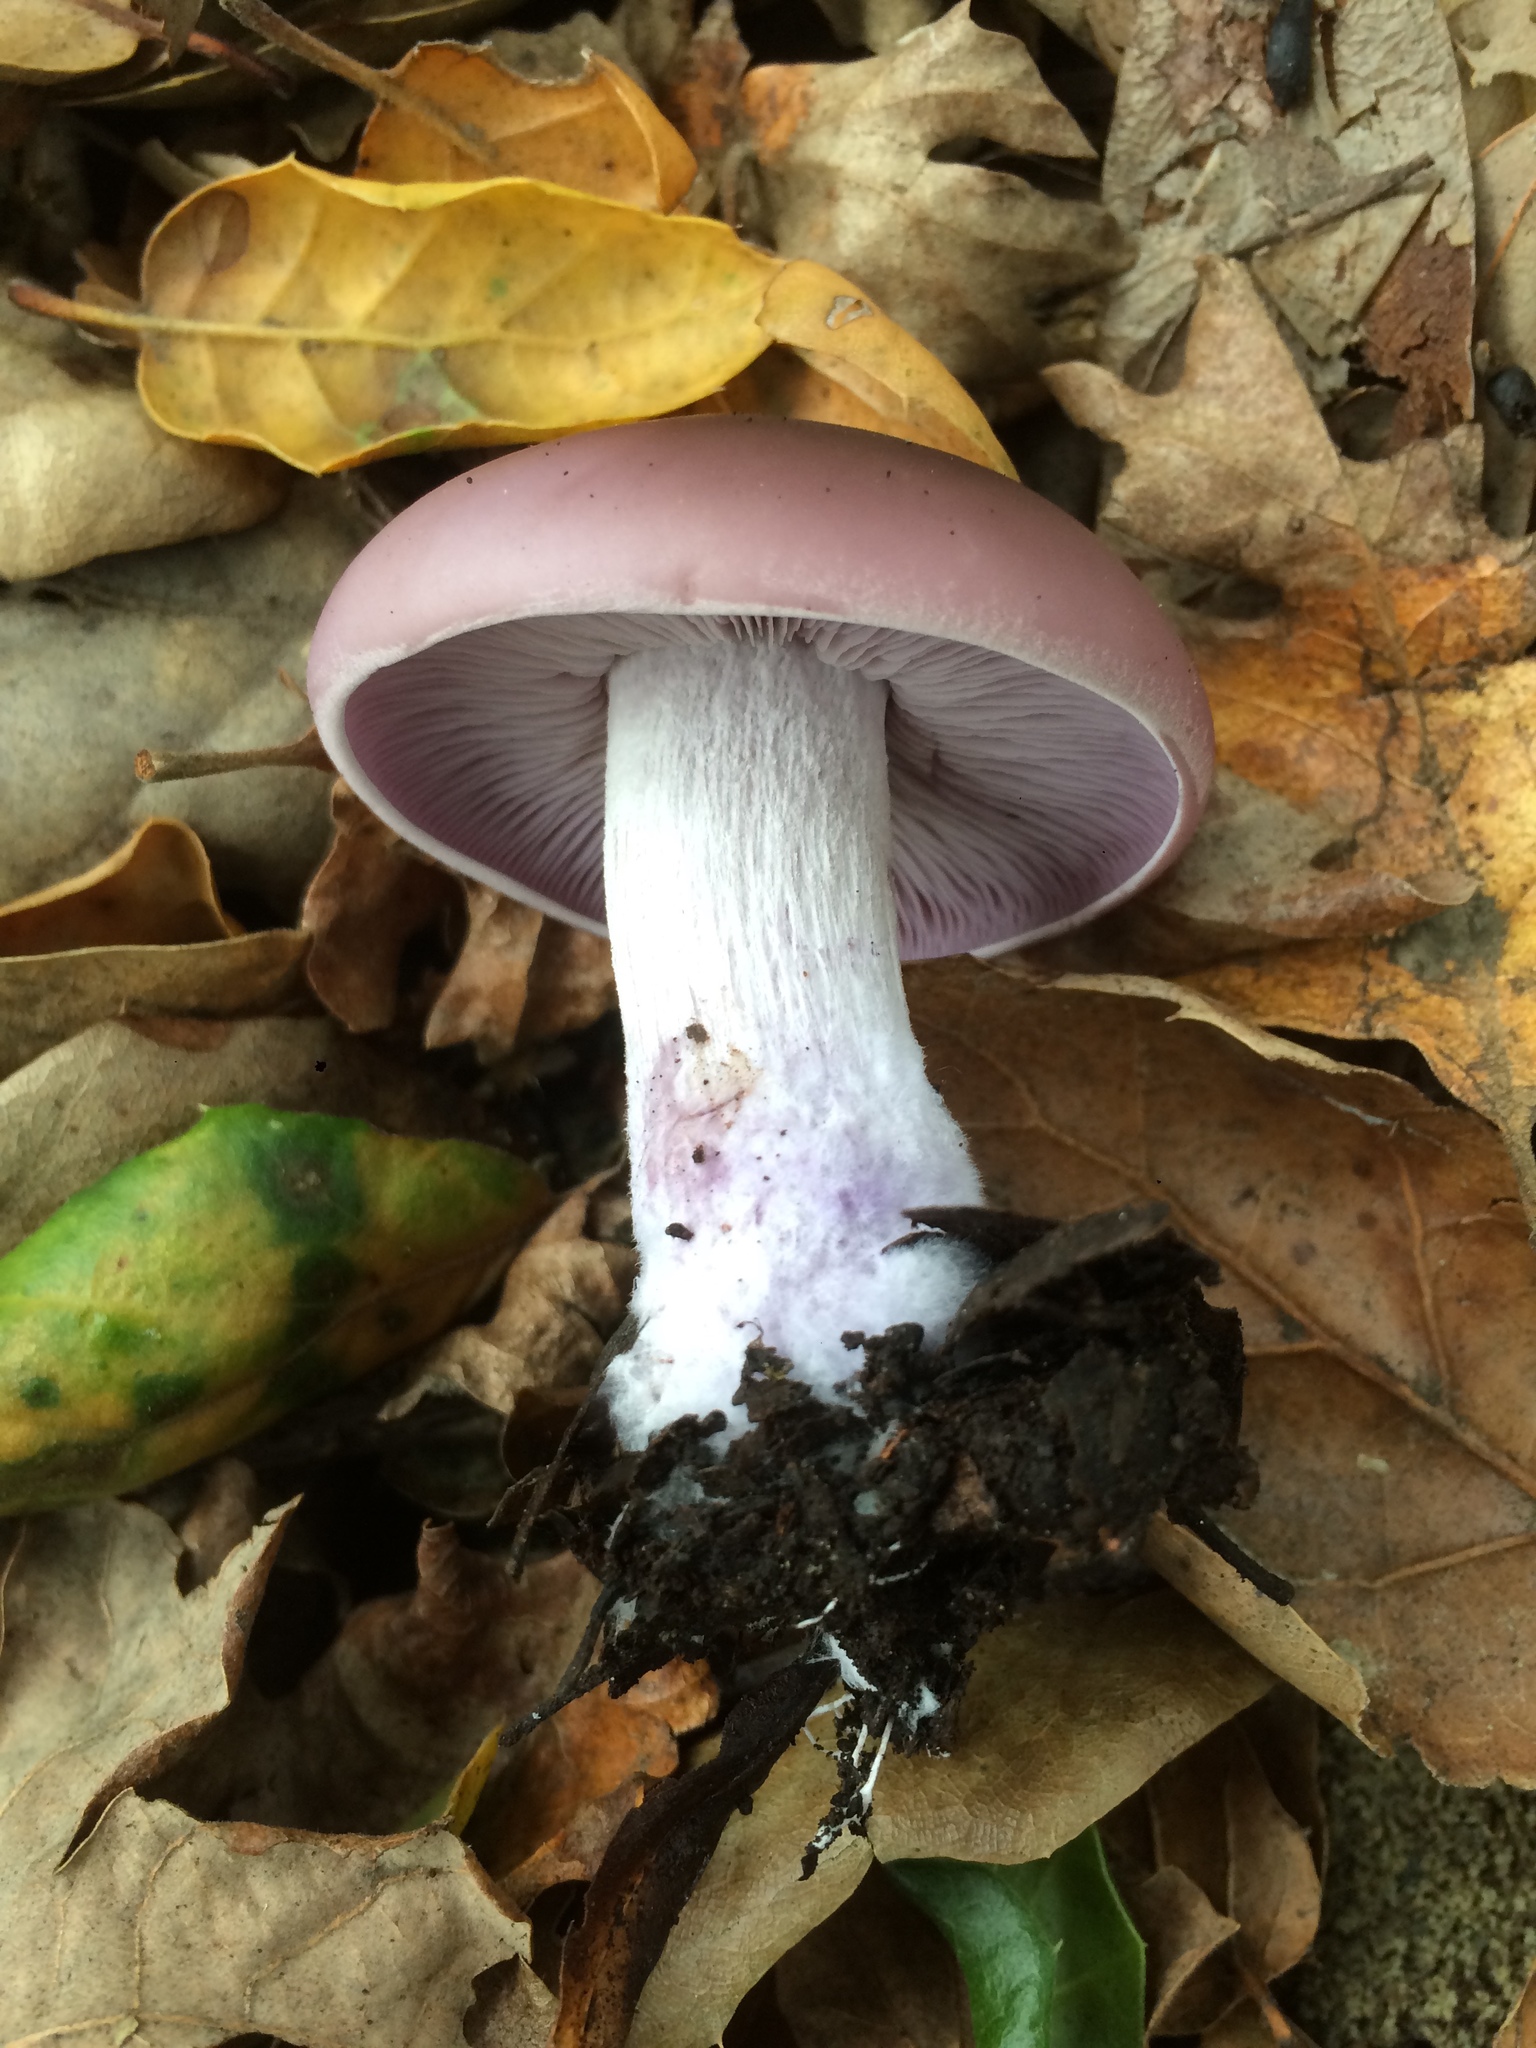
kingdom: Fungi
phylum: Basidiomycota
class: Agaricomycetes
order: Agaricales
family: Tricholomataceae
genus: Collybia
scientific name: Collybia
